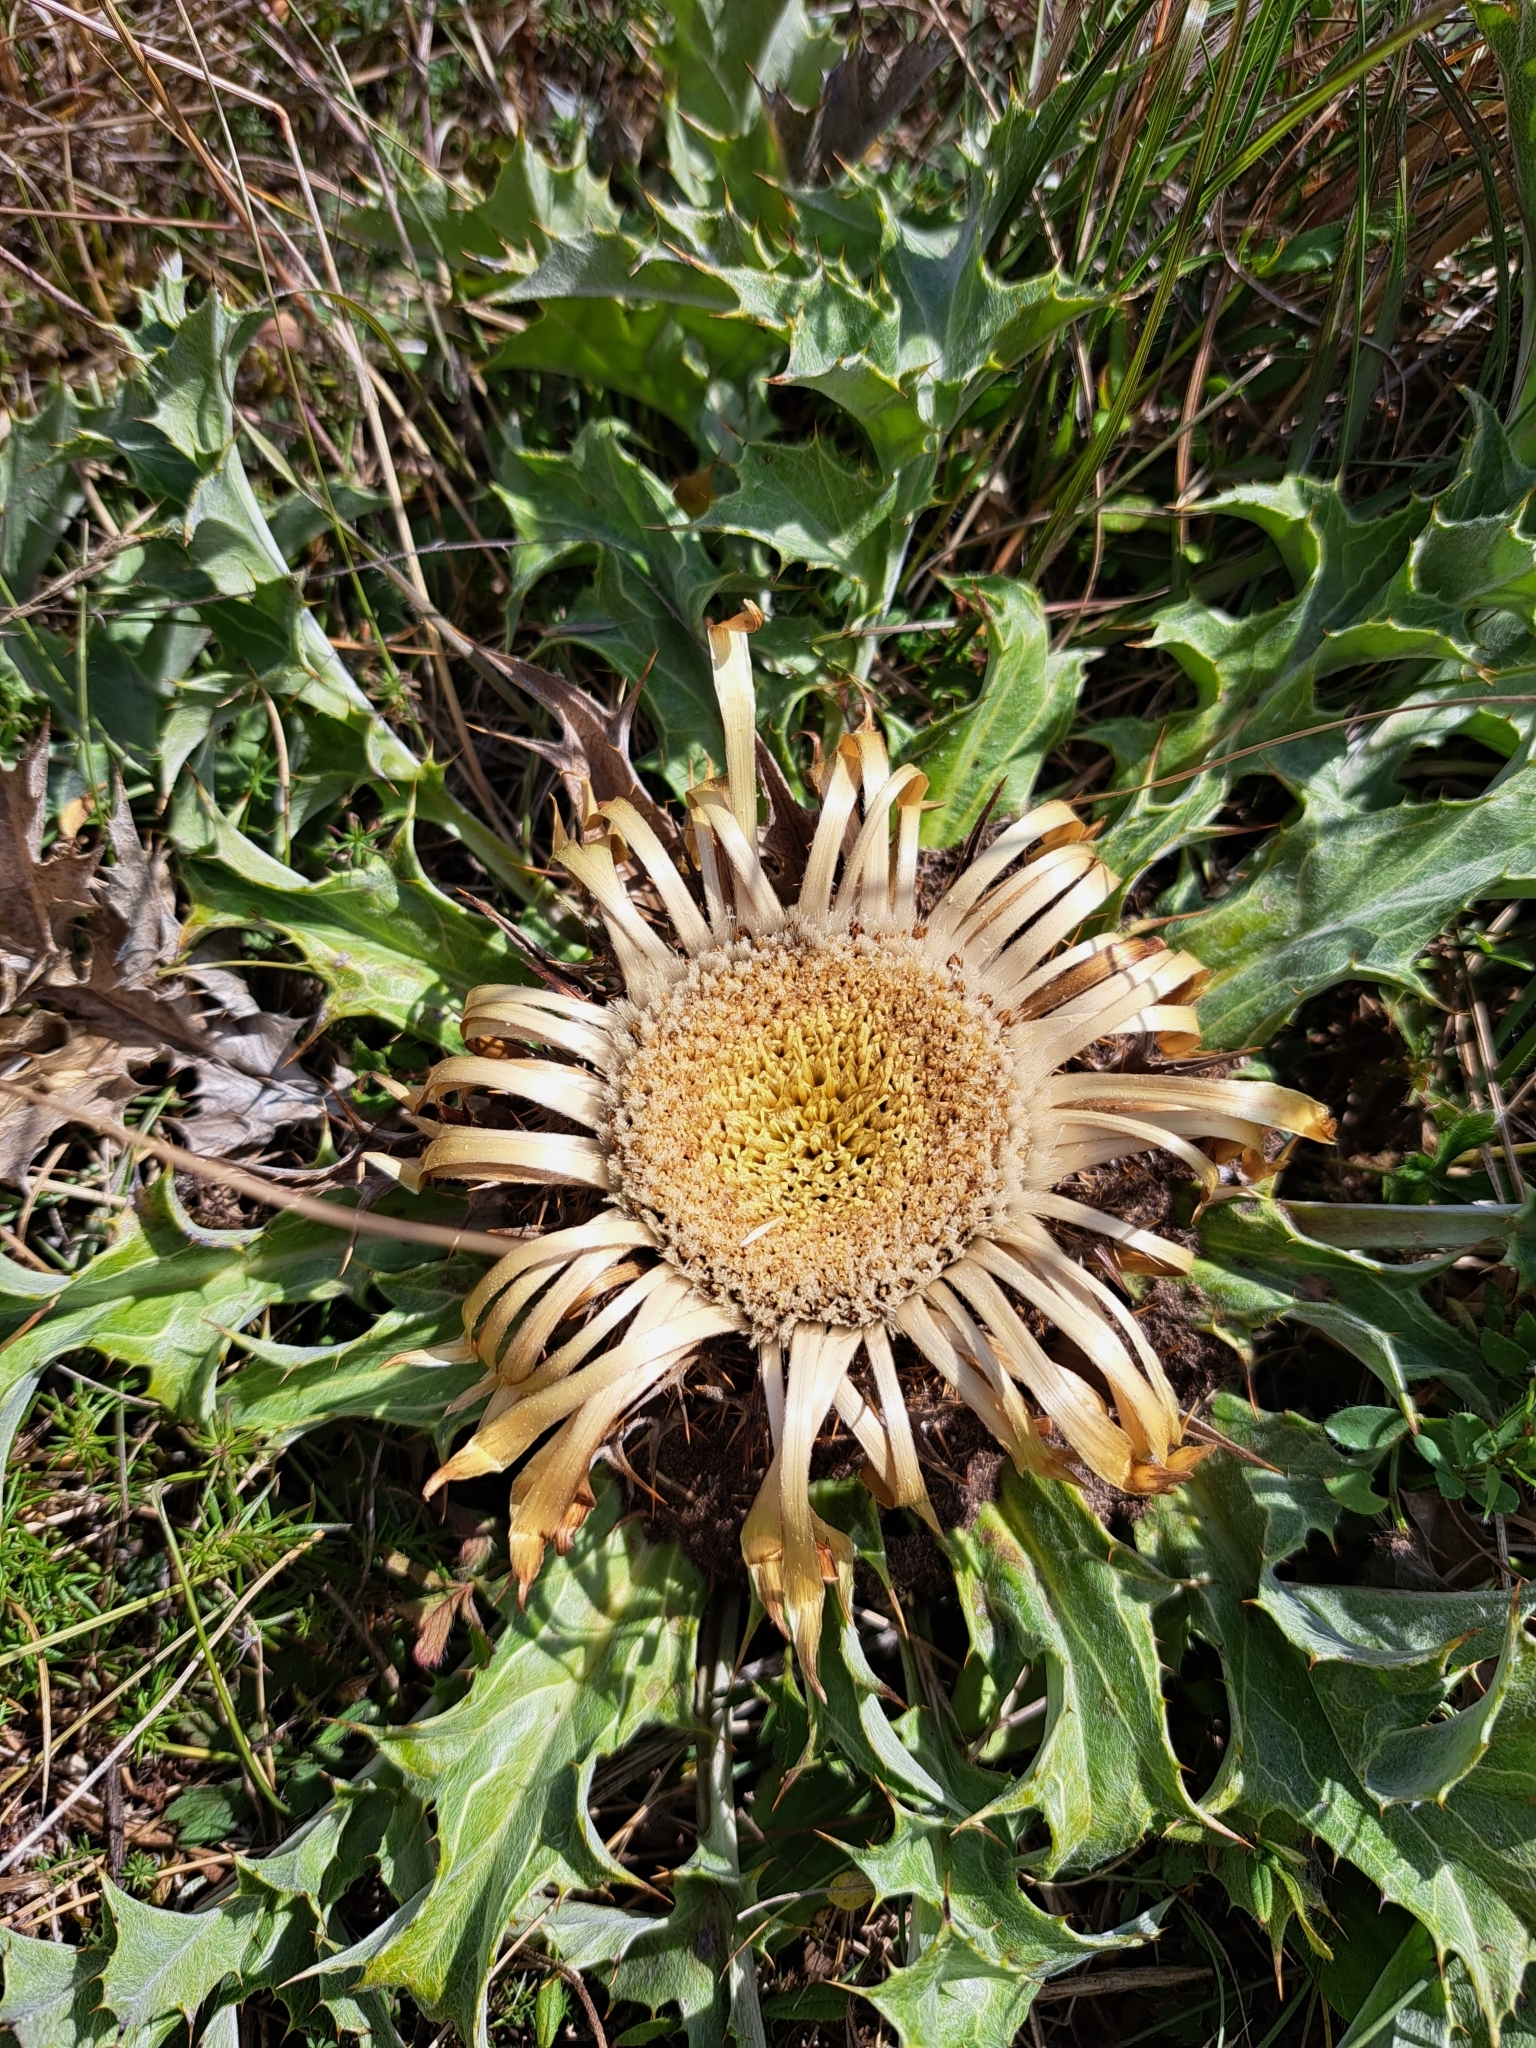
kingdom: Plantae
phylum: Tracheophyta
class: Magnoliopsida
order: Asterales
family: Asteraceae
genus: Carlina
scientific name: Carlina acanthifolia
